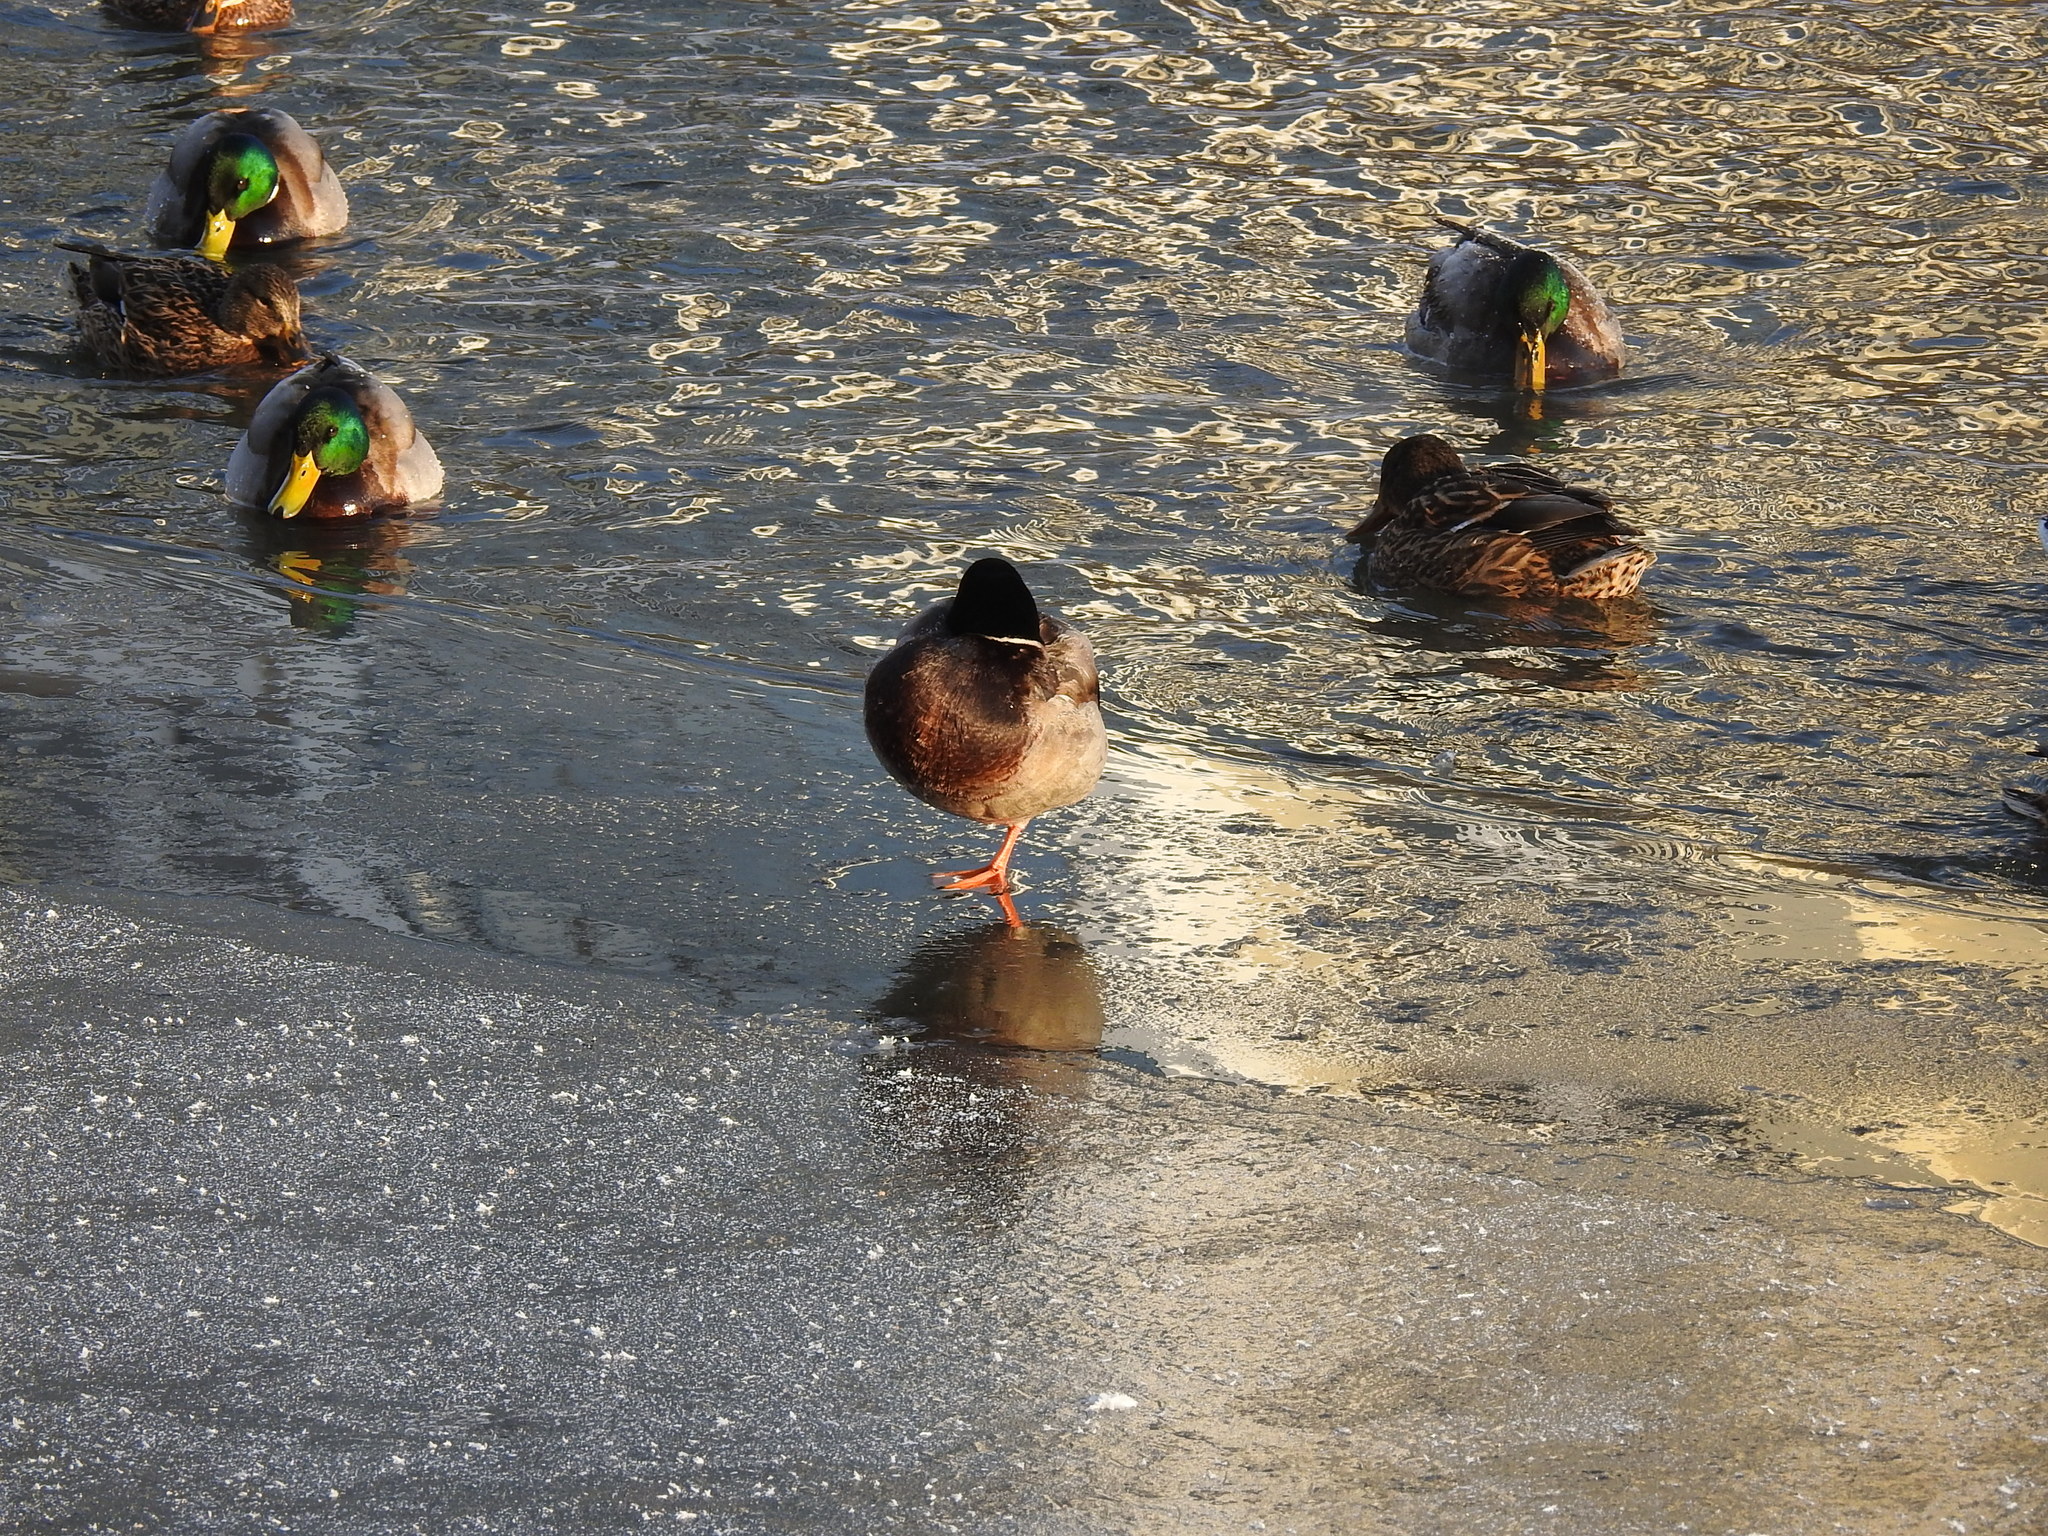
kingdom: Animalia
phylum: Chordata
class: Aves
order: Anseriformes
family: Anatidae
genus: Anas
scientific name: Anas platyrhynchos
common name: Mallard
